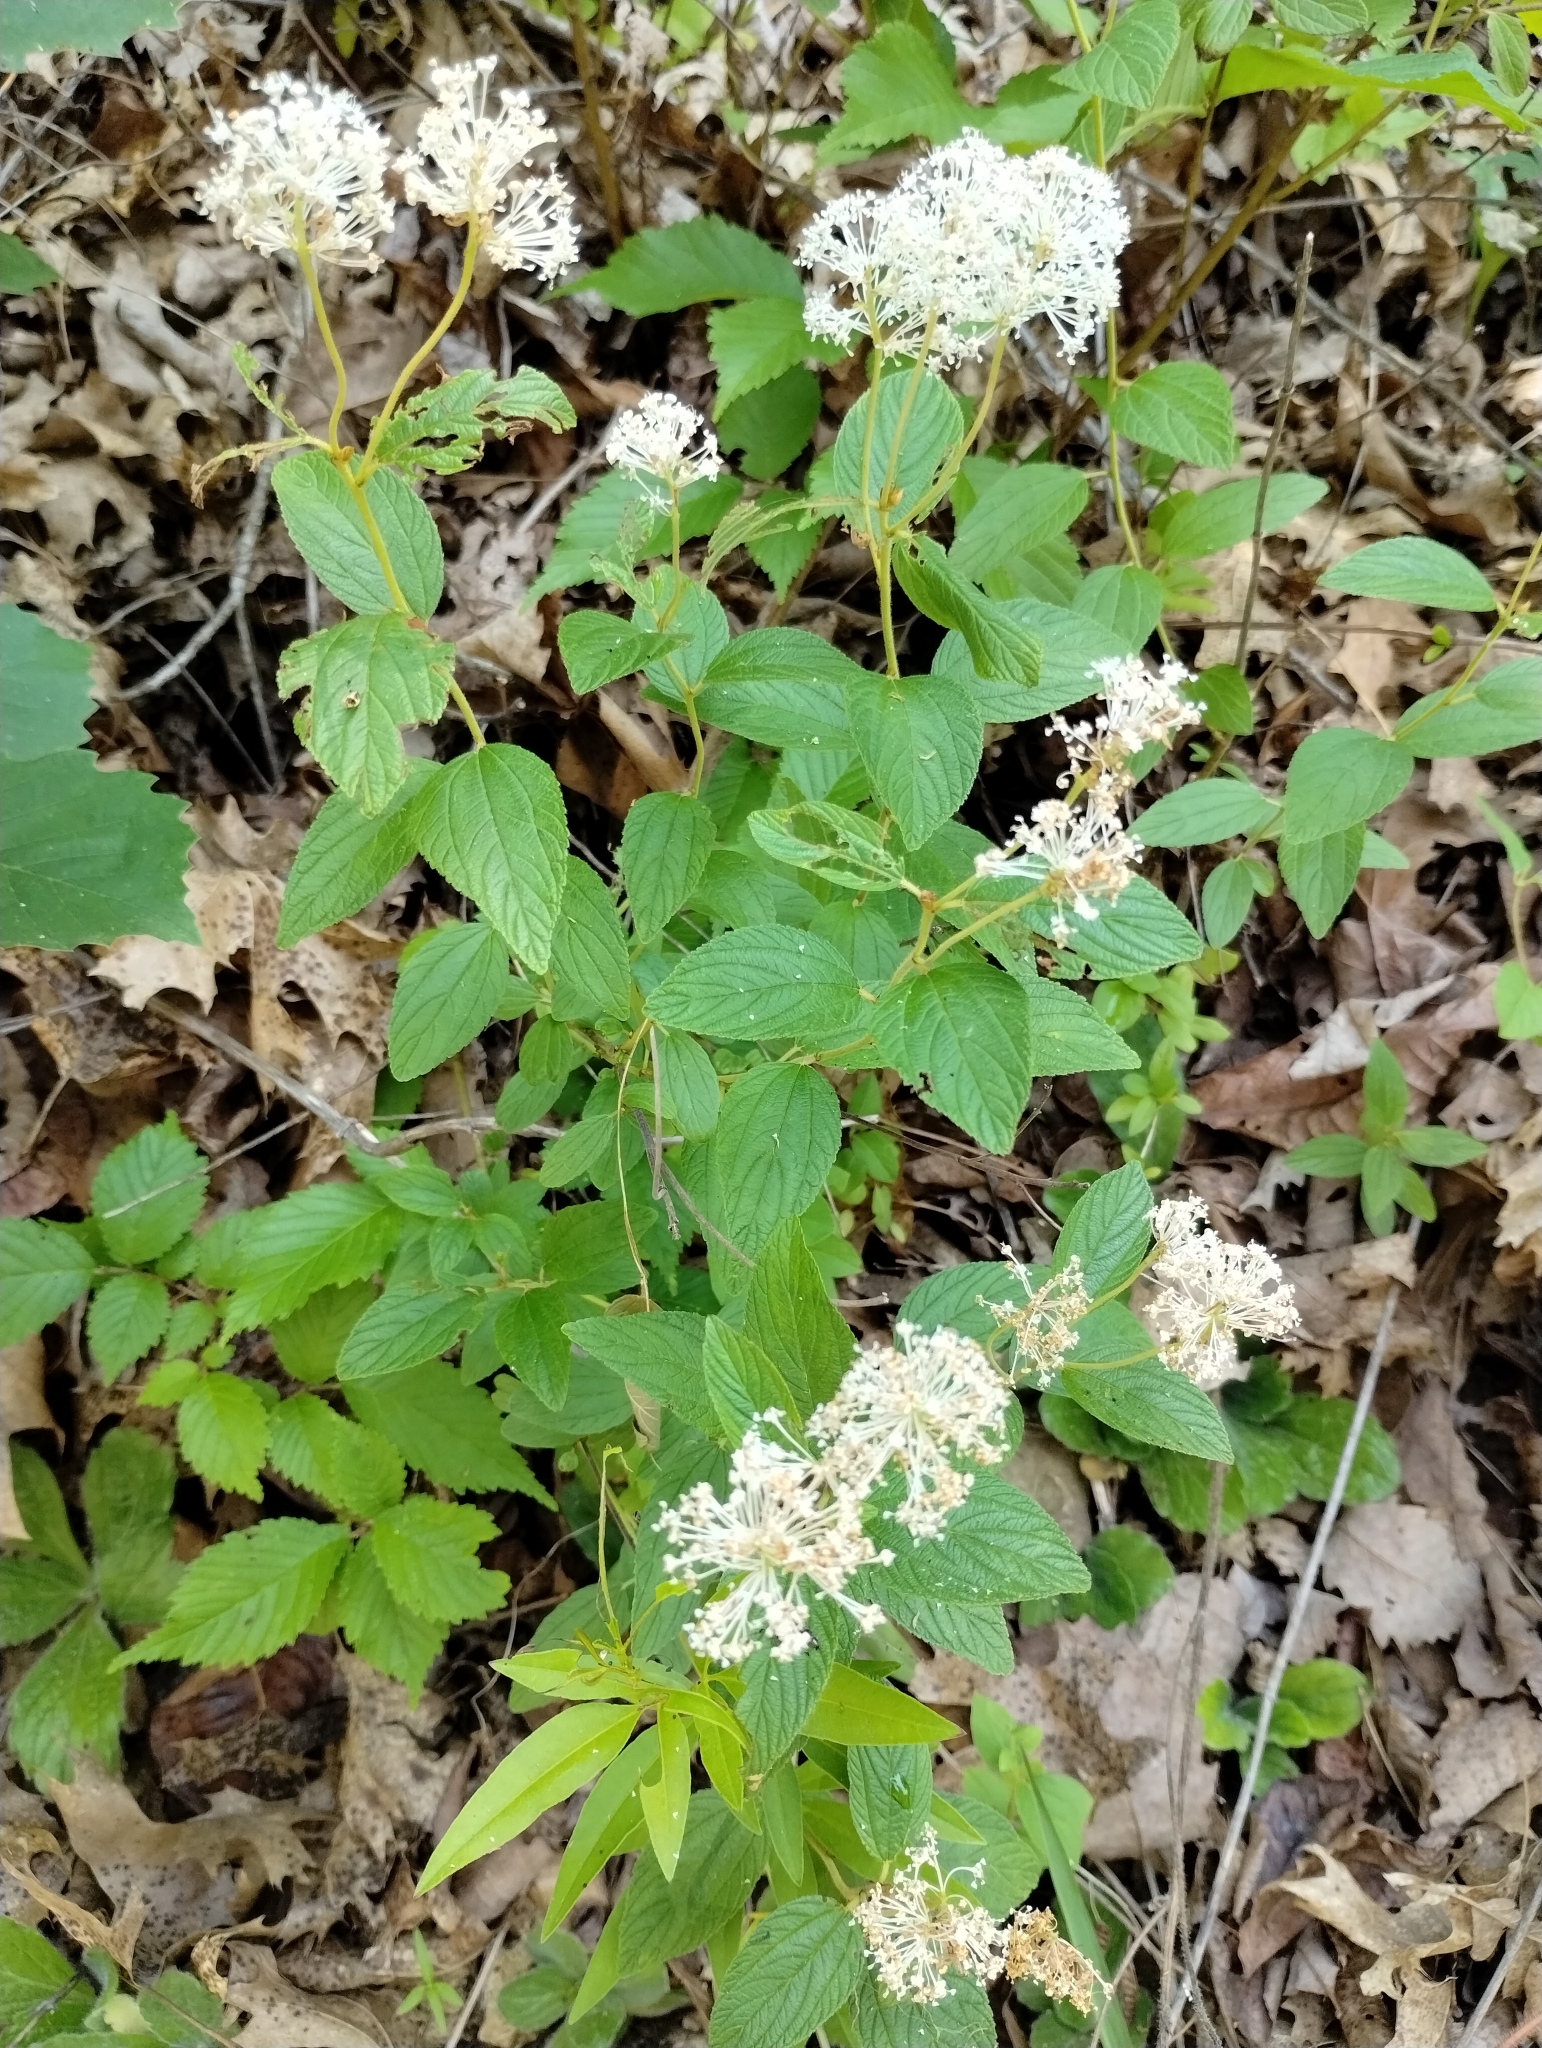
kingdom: Plantae
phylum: Tracheophyta
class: Magnoliopsida
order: Rosales
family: Rhamnaceae
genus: Ceanothus
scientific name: Ceanothus americanus
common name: Redroot
